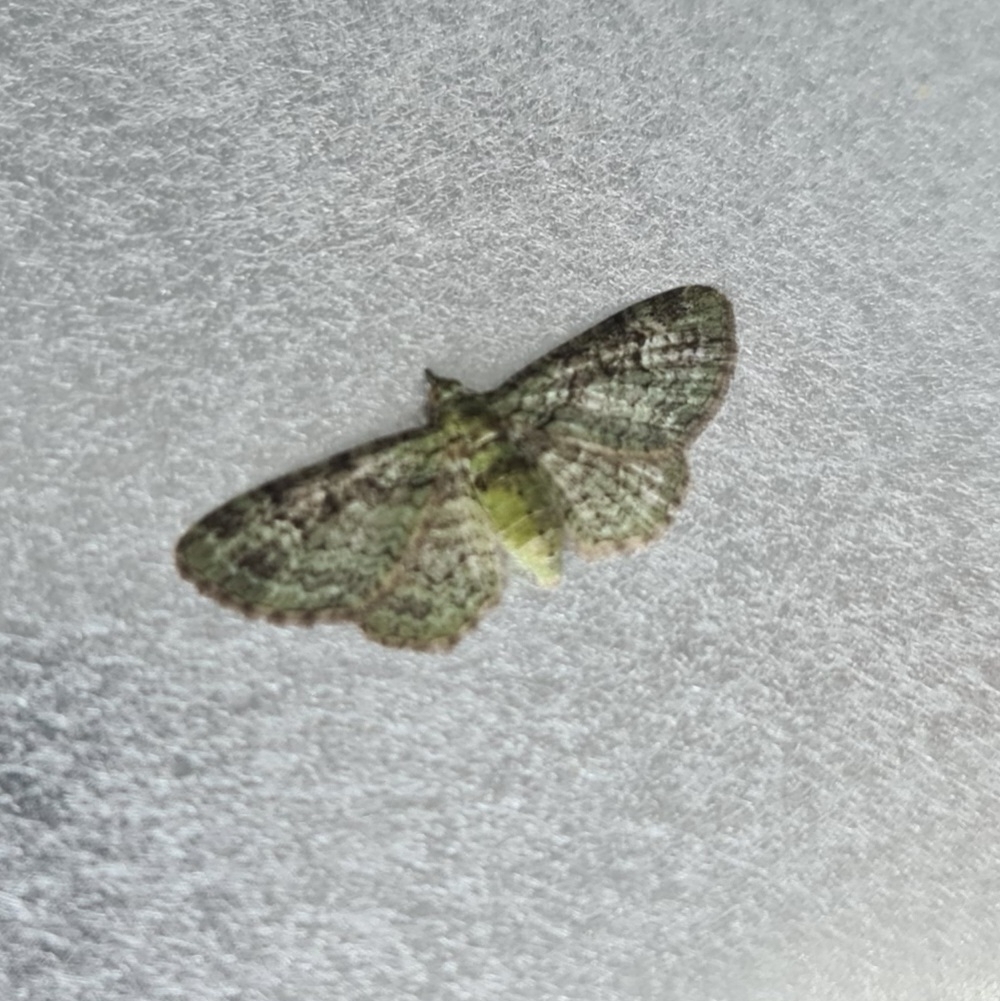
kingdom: Animalia
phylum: Arthropoda
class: Insecta
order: Lepidoptera
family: Geometridae
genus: Pasiphila
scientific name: Pasiphila rectangulata
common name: Green pug
